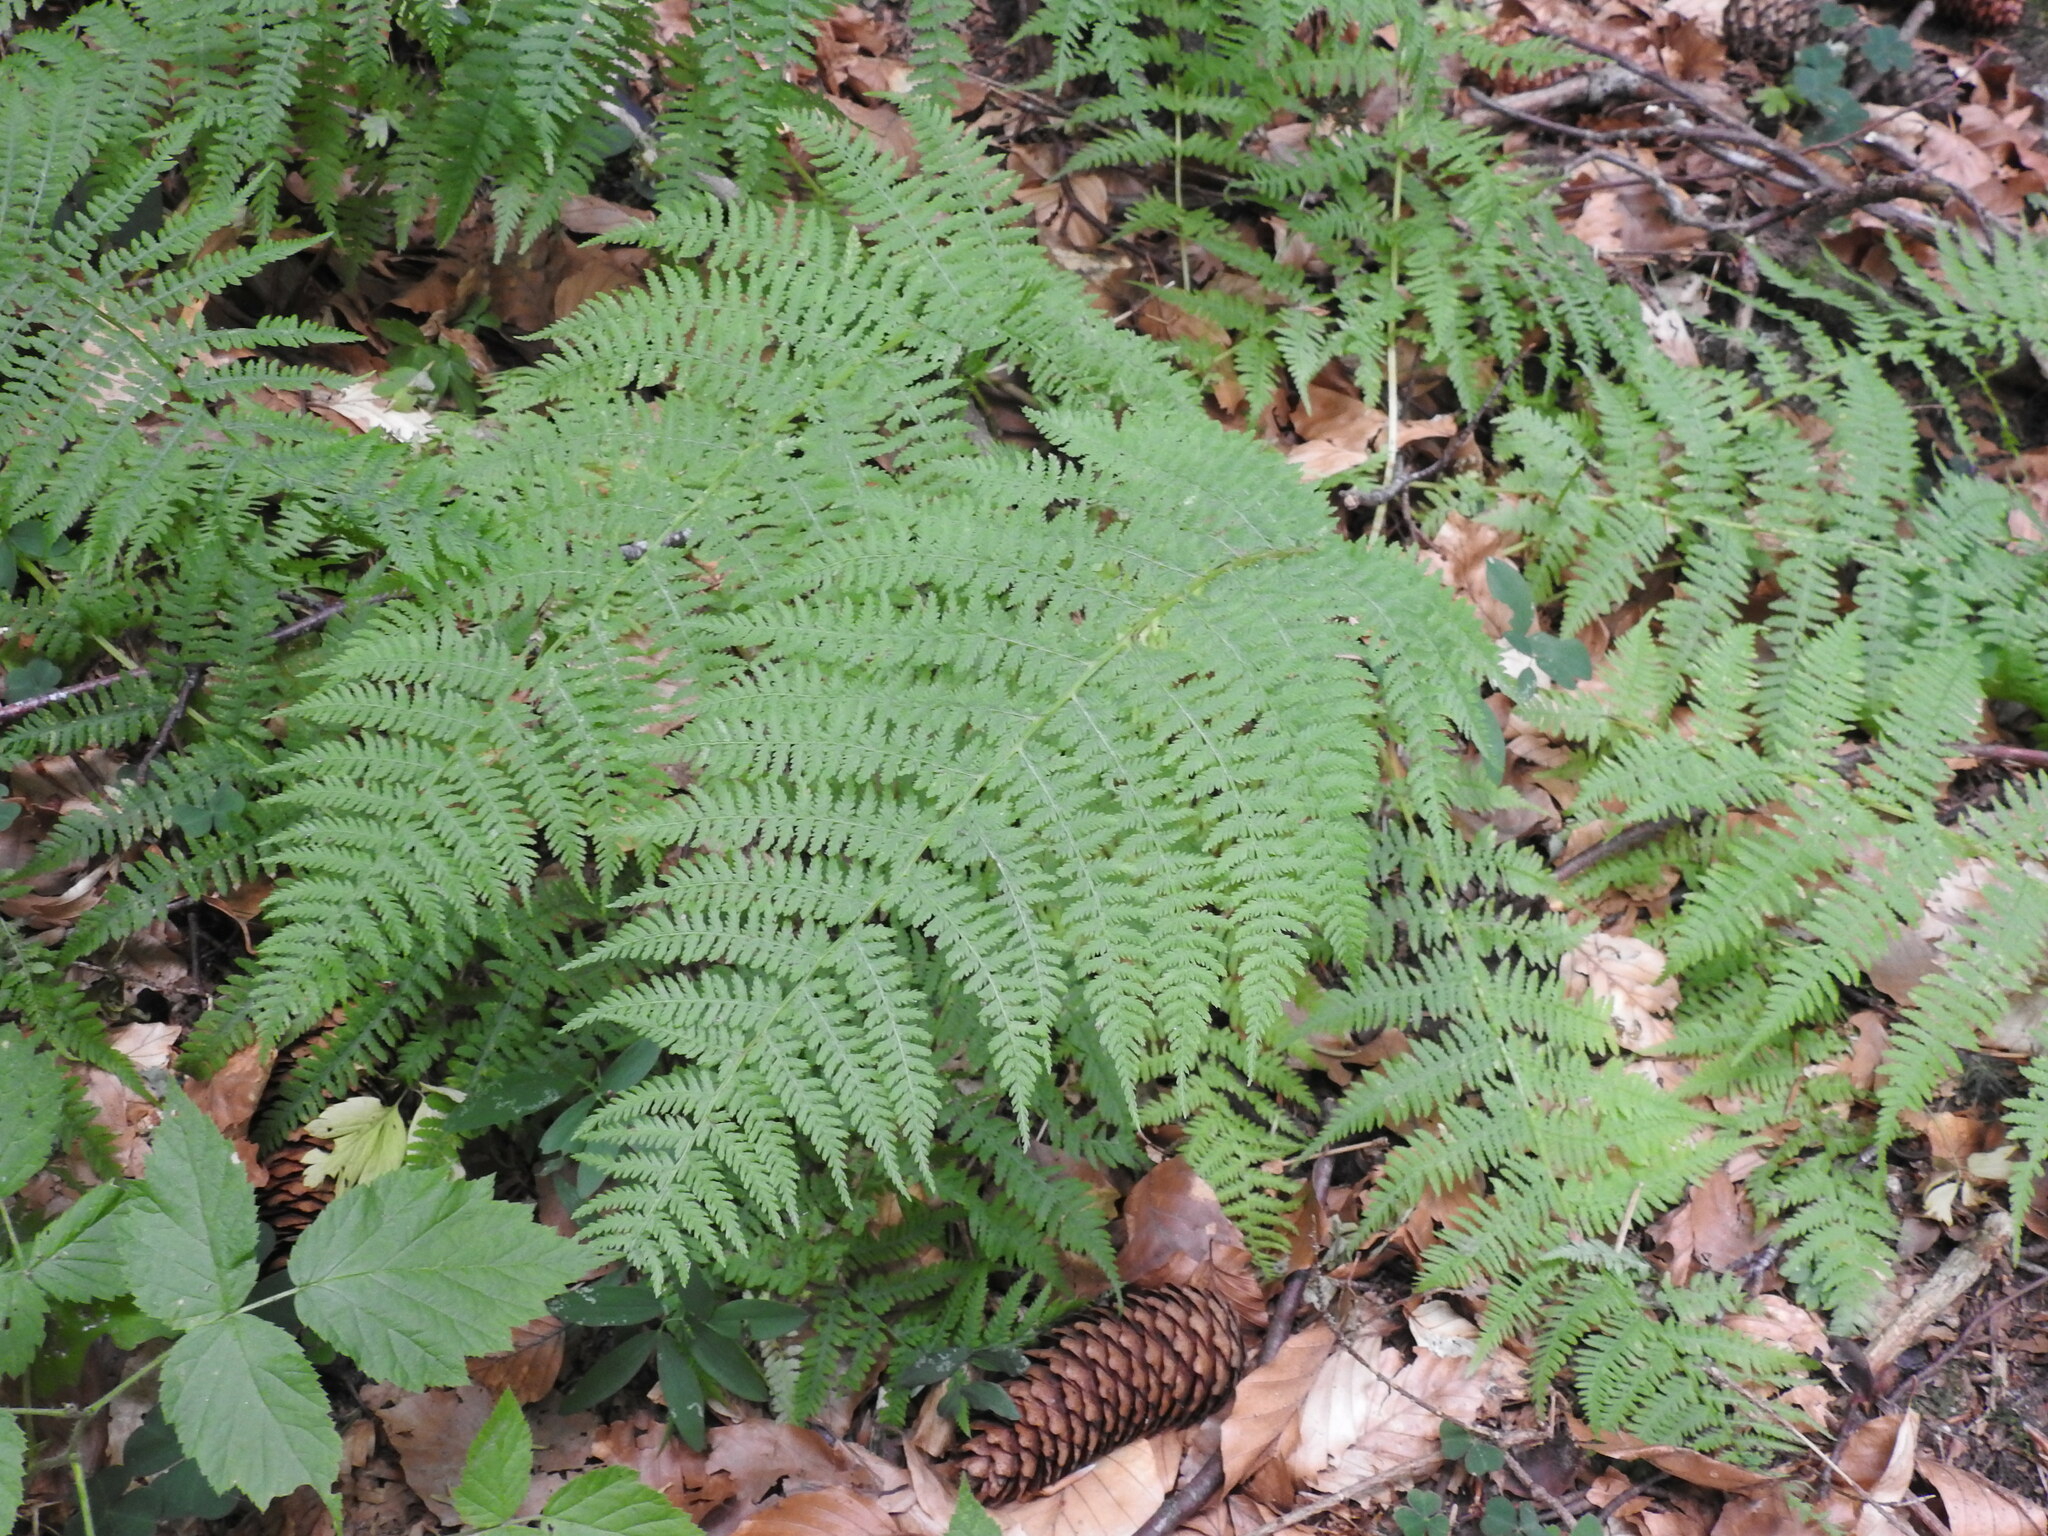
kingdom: Plantae
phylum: Tracheophyta
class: Polypodiopsida
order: Polypodiales
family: Athyriaceae
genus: Athyrium
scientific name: Athyrium filix-femina
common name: Lady fern
